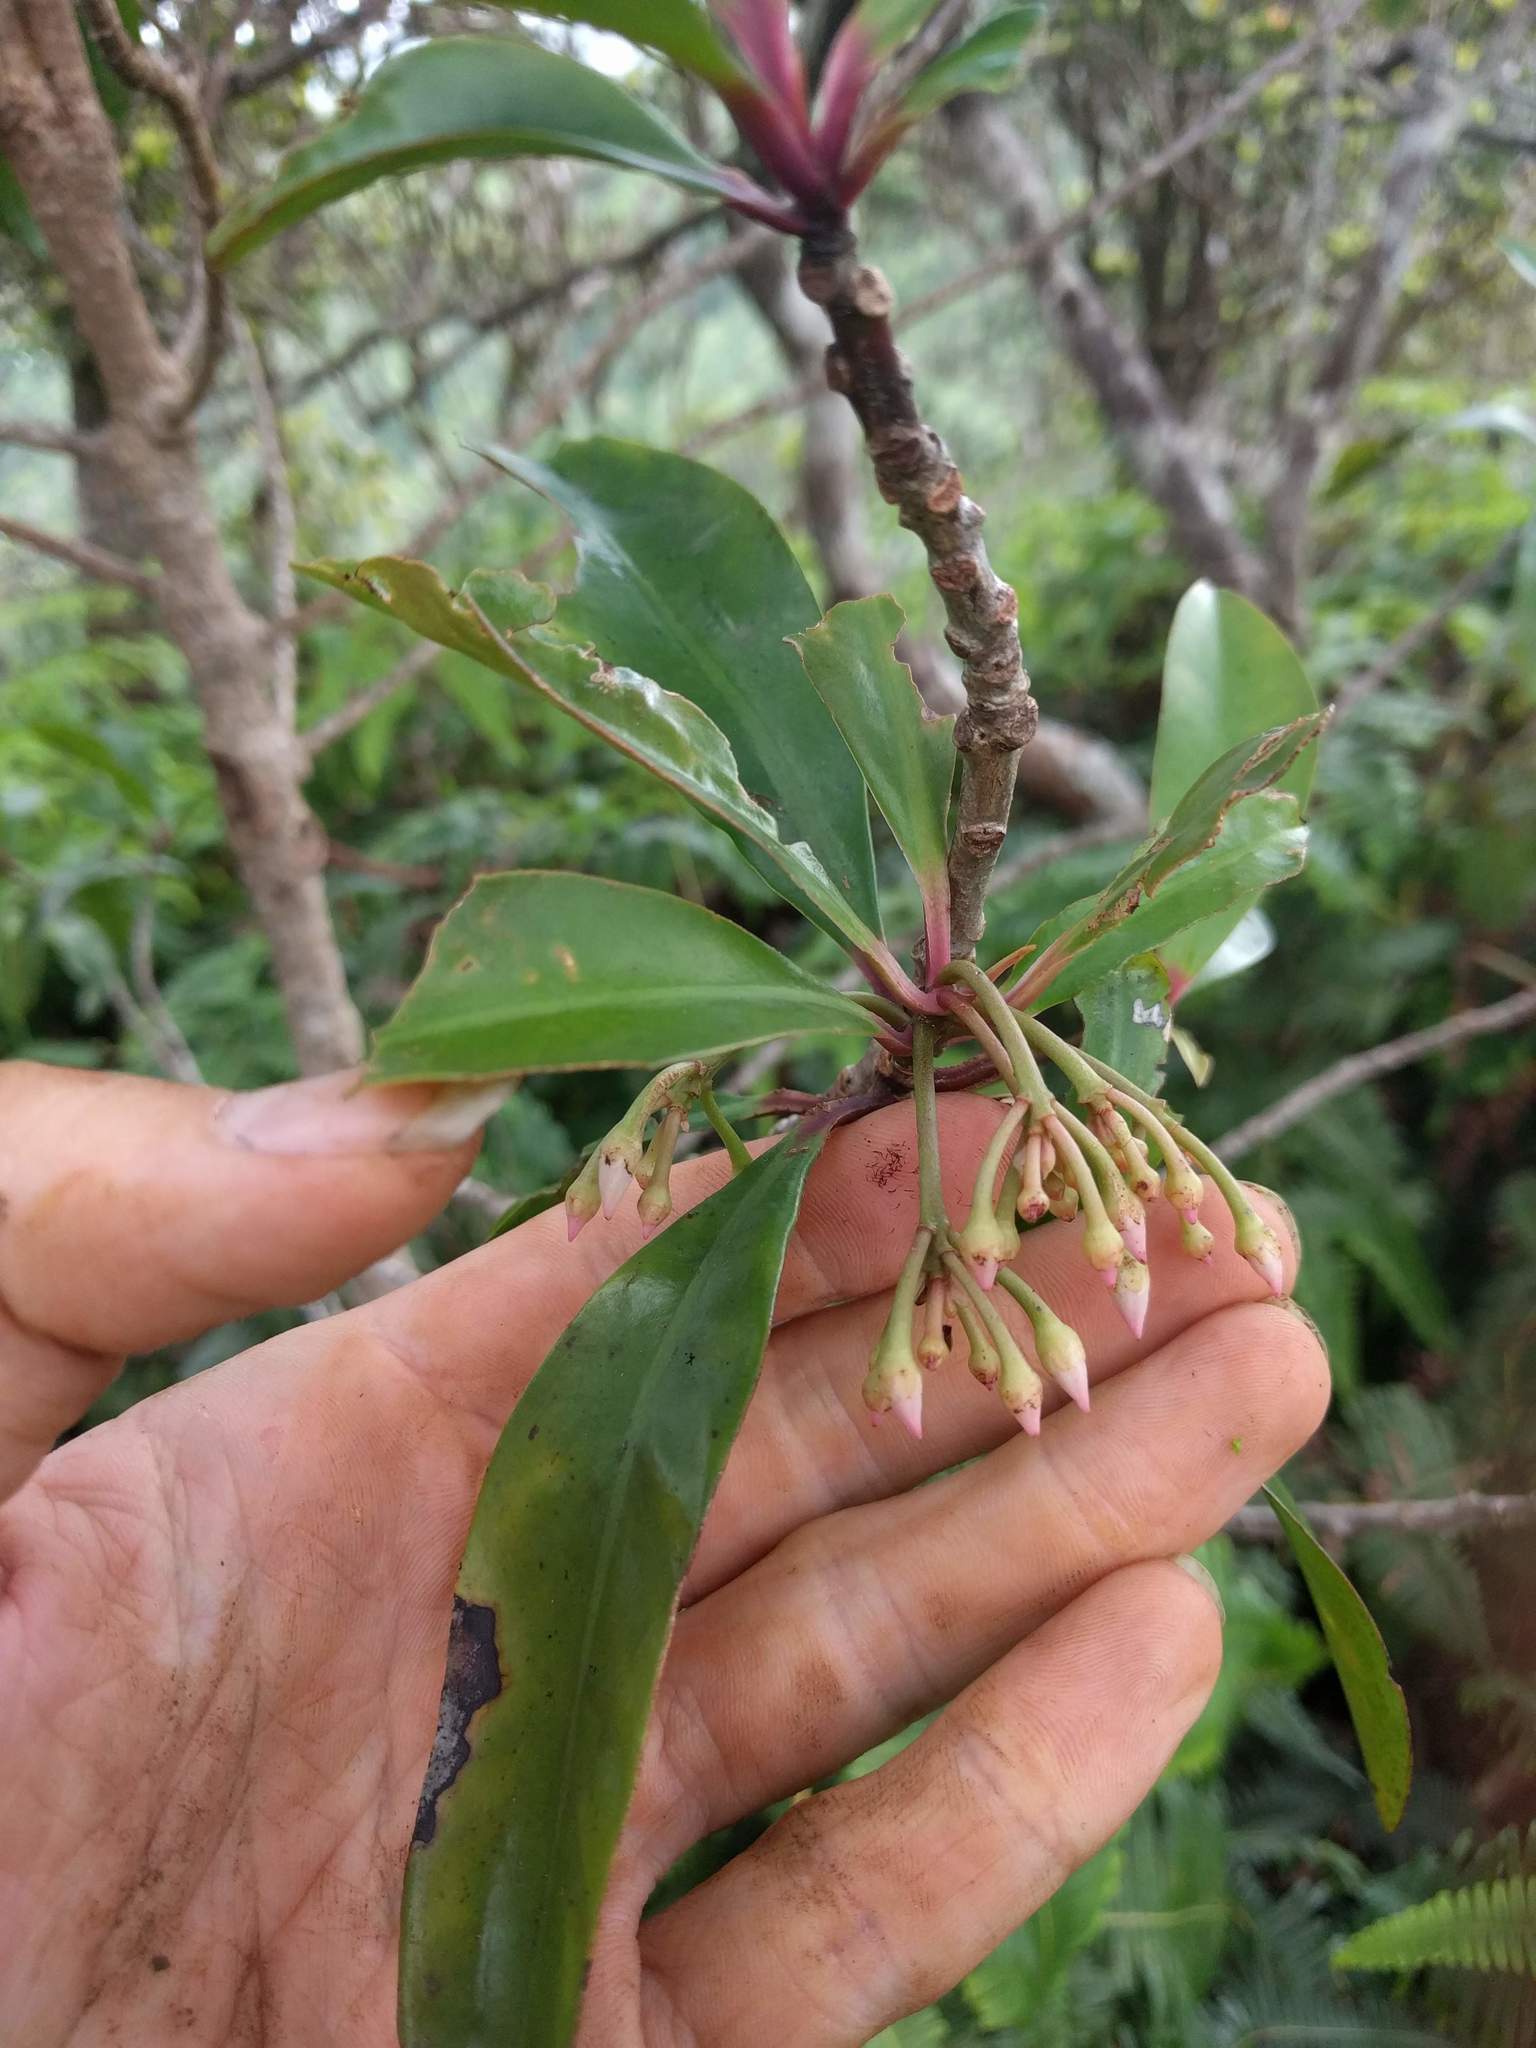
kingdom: Plantae
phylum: Tracheophyta
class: Magnoliopsida
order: Ericales
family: Primulaceae
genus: Ardisia
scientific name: Ardisia elliptica
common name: Shoebutton
